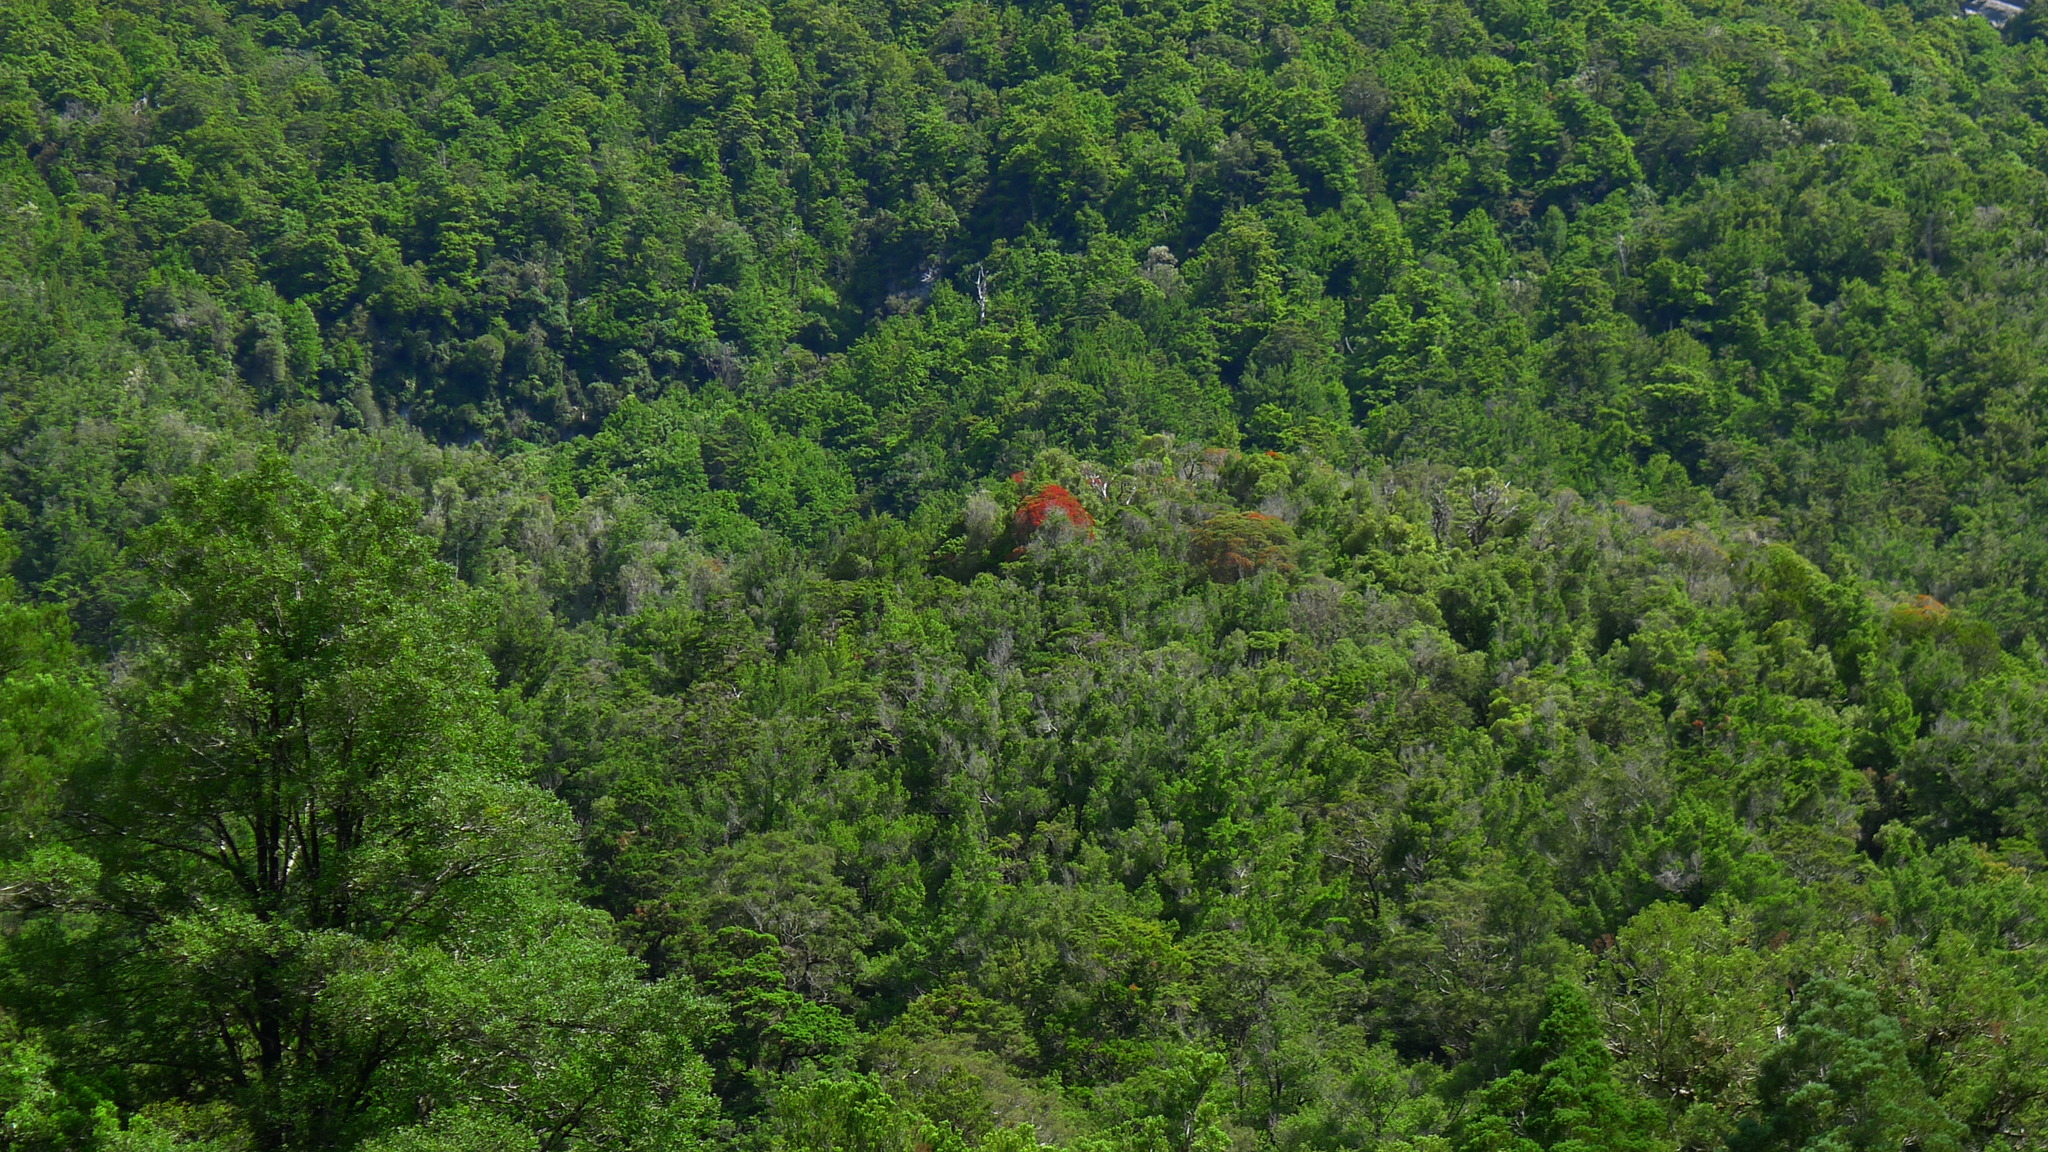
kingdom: Plantae
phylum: Tracheophyta
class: Magnoliopsida
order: Myrtales
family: Myrtaceae
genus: Metrosideros
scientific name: Metrosideros umbellata
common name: Southern rata
